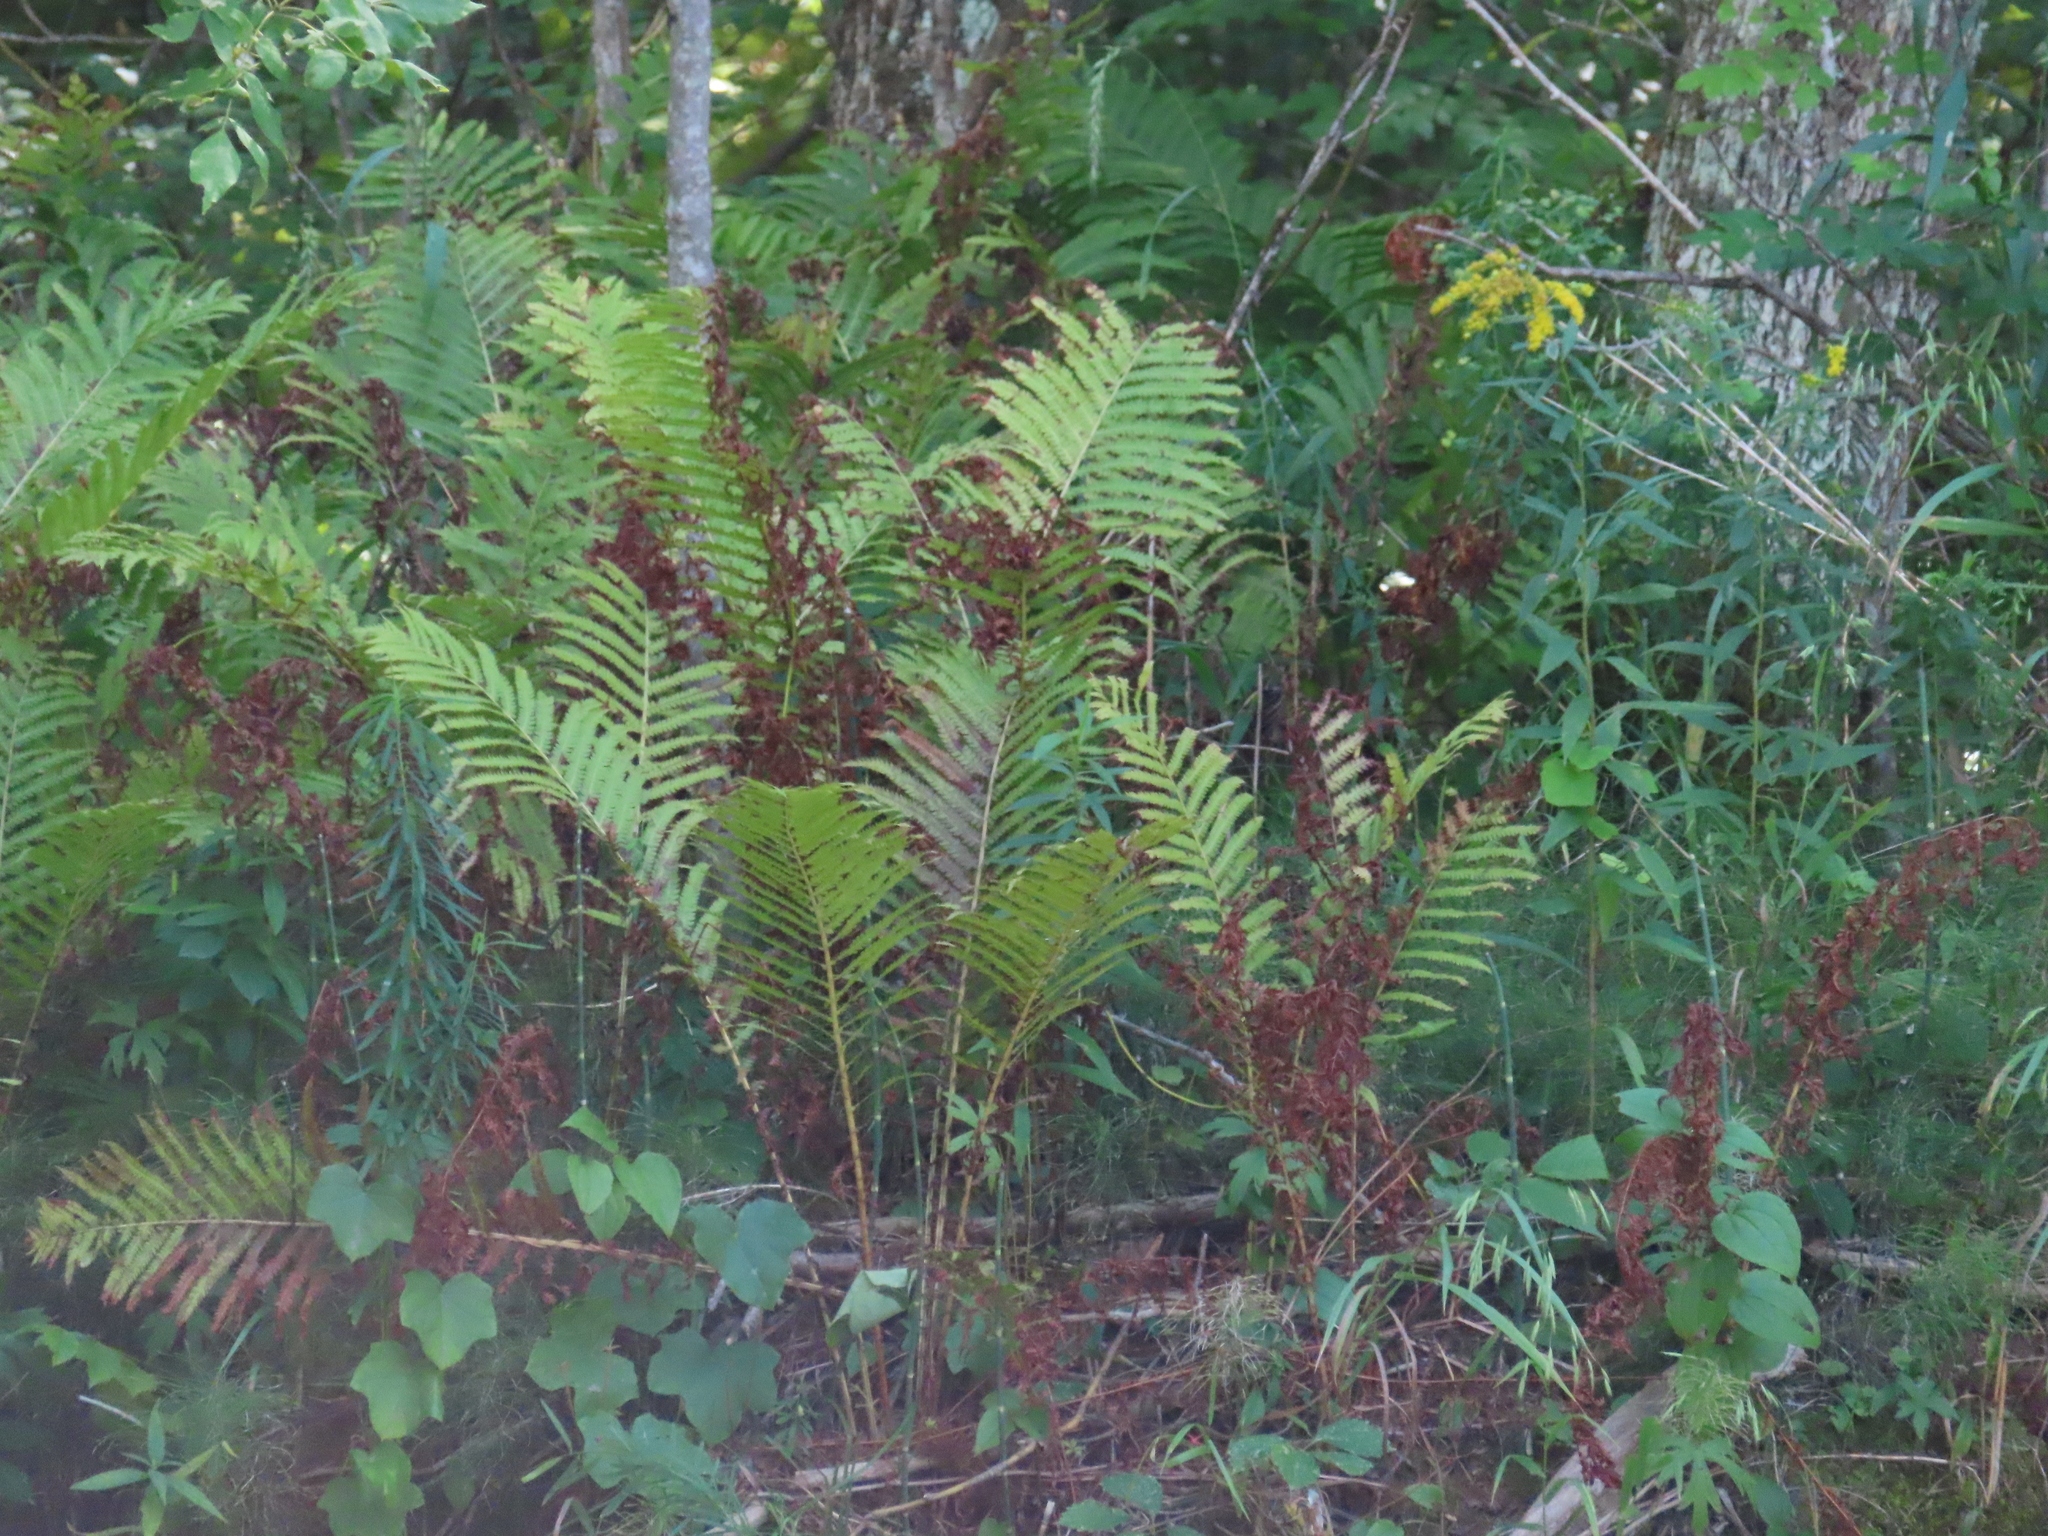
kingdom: Plantae
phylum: Tracheophyta
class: Polypodiopsida
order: Polypodiales
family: Onocleaceae
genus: Matteuccia
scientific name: Matteuccia struthiopteris
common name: Ostrich fern
